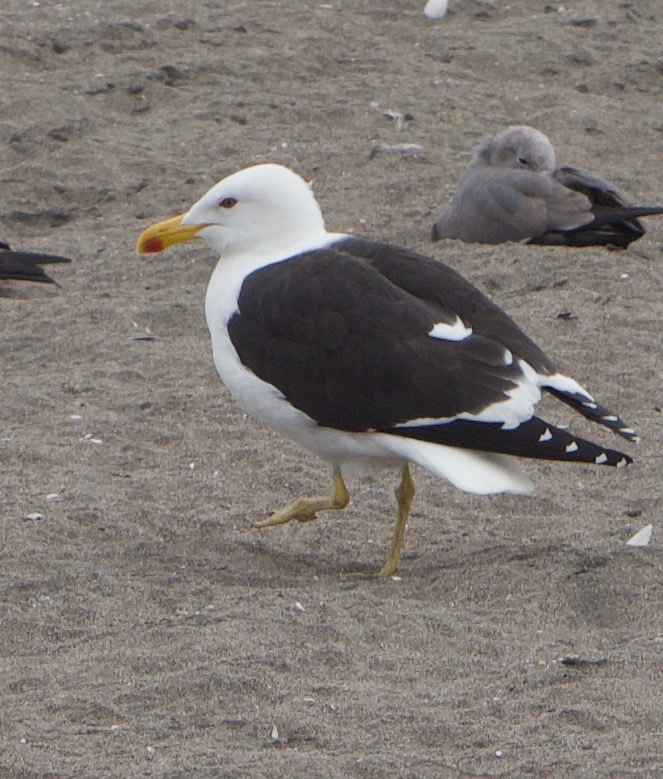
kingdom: Animalia
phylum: Chordata
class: Aves
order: Charadriiformes
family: Laridae
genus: Larus
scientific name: Larus dominicanus
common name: Kelp gull
